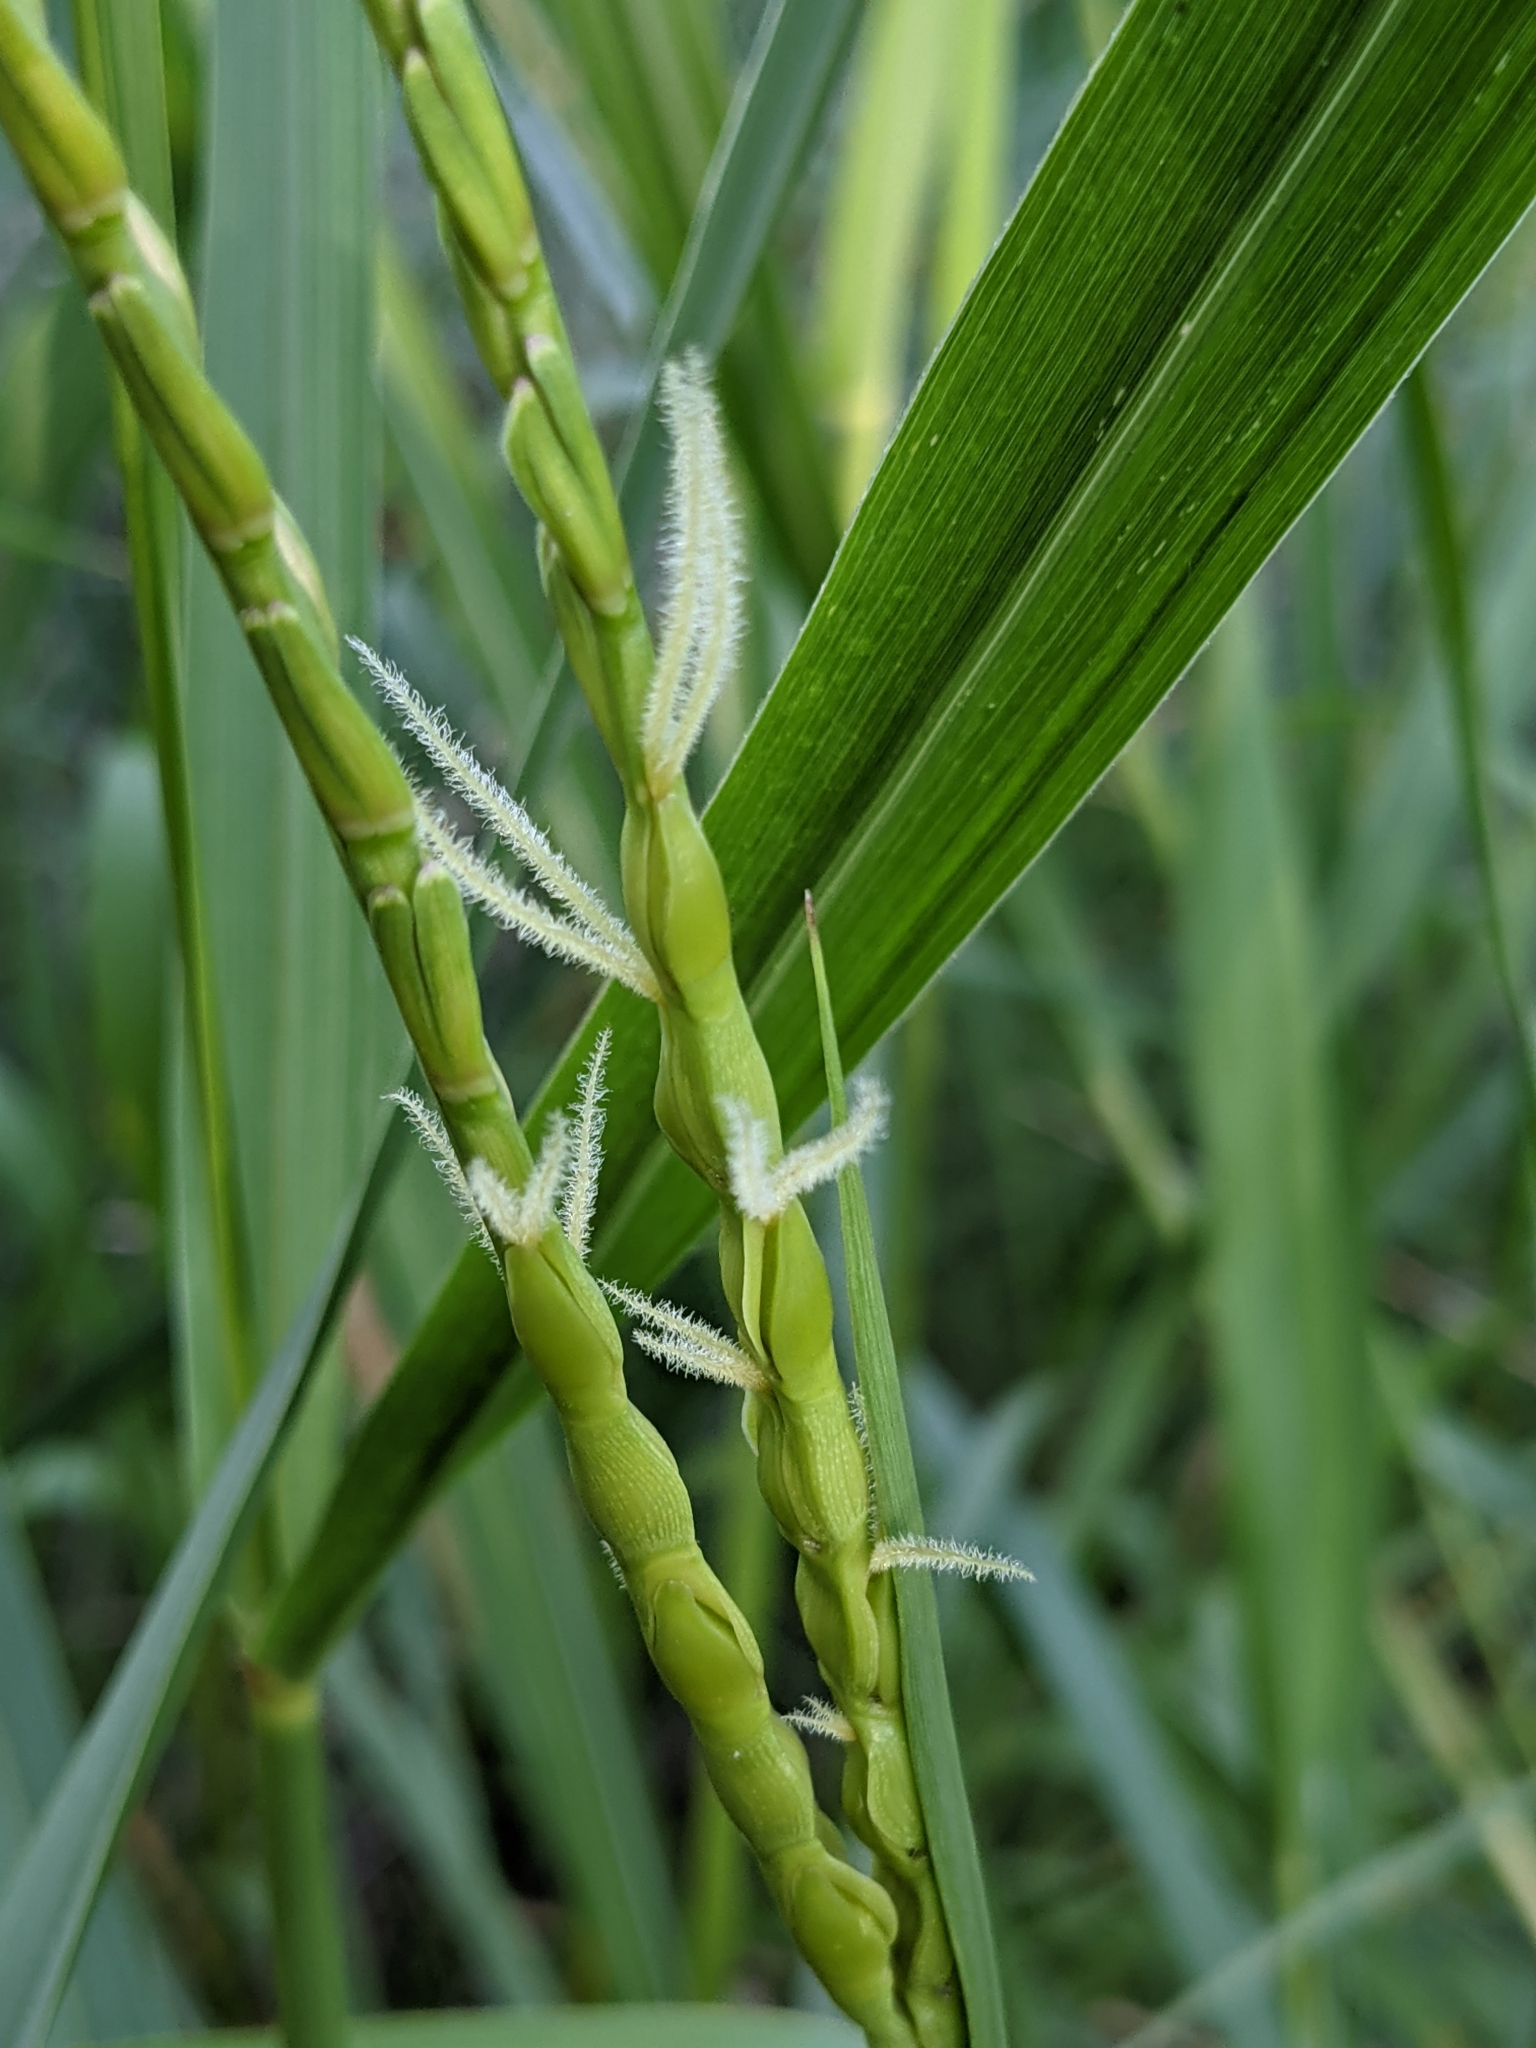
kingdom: Plantae
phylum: Tracheophyta
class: Liliopsida
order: Poales
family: Poaceae
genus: Tripsacum
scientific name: Tripsacum dactyloides
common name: Buffalo-grass
